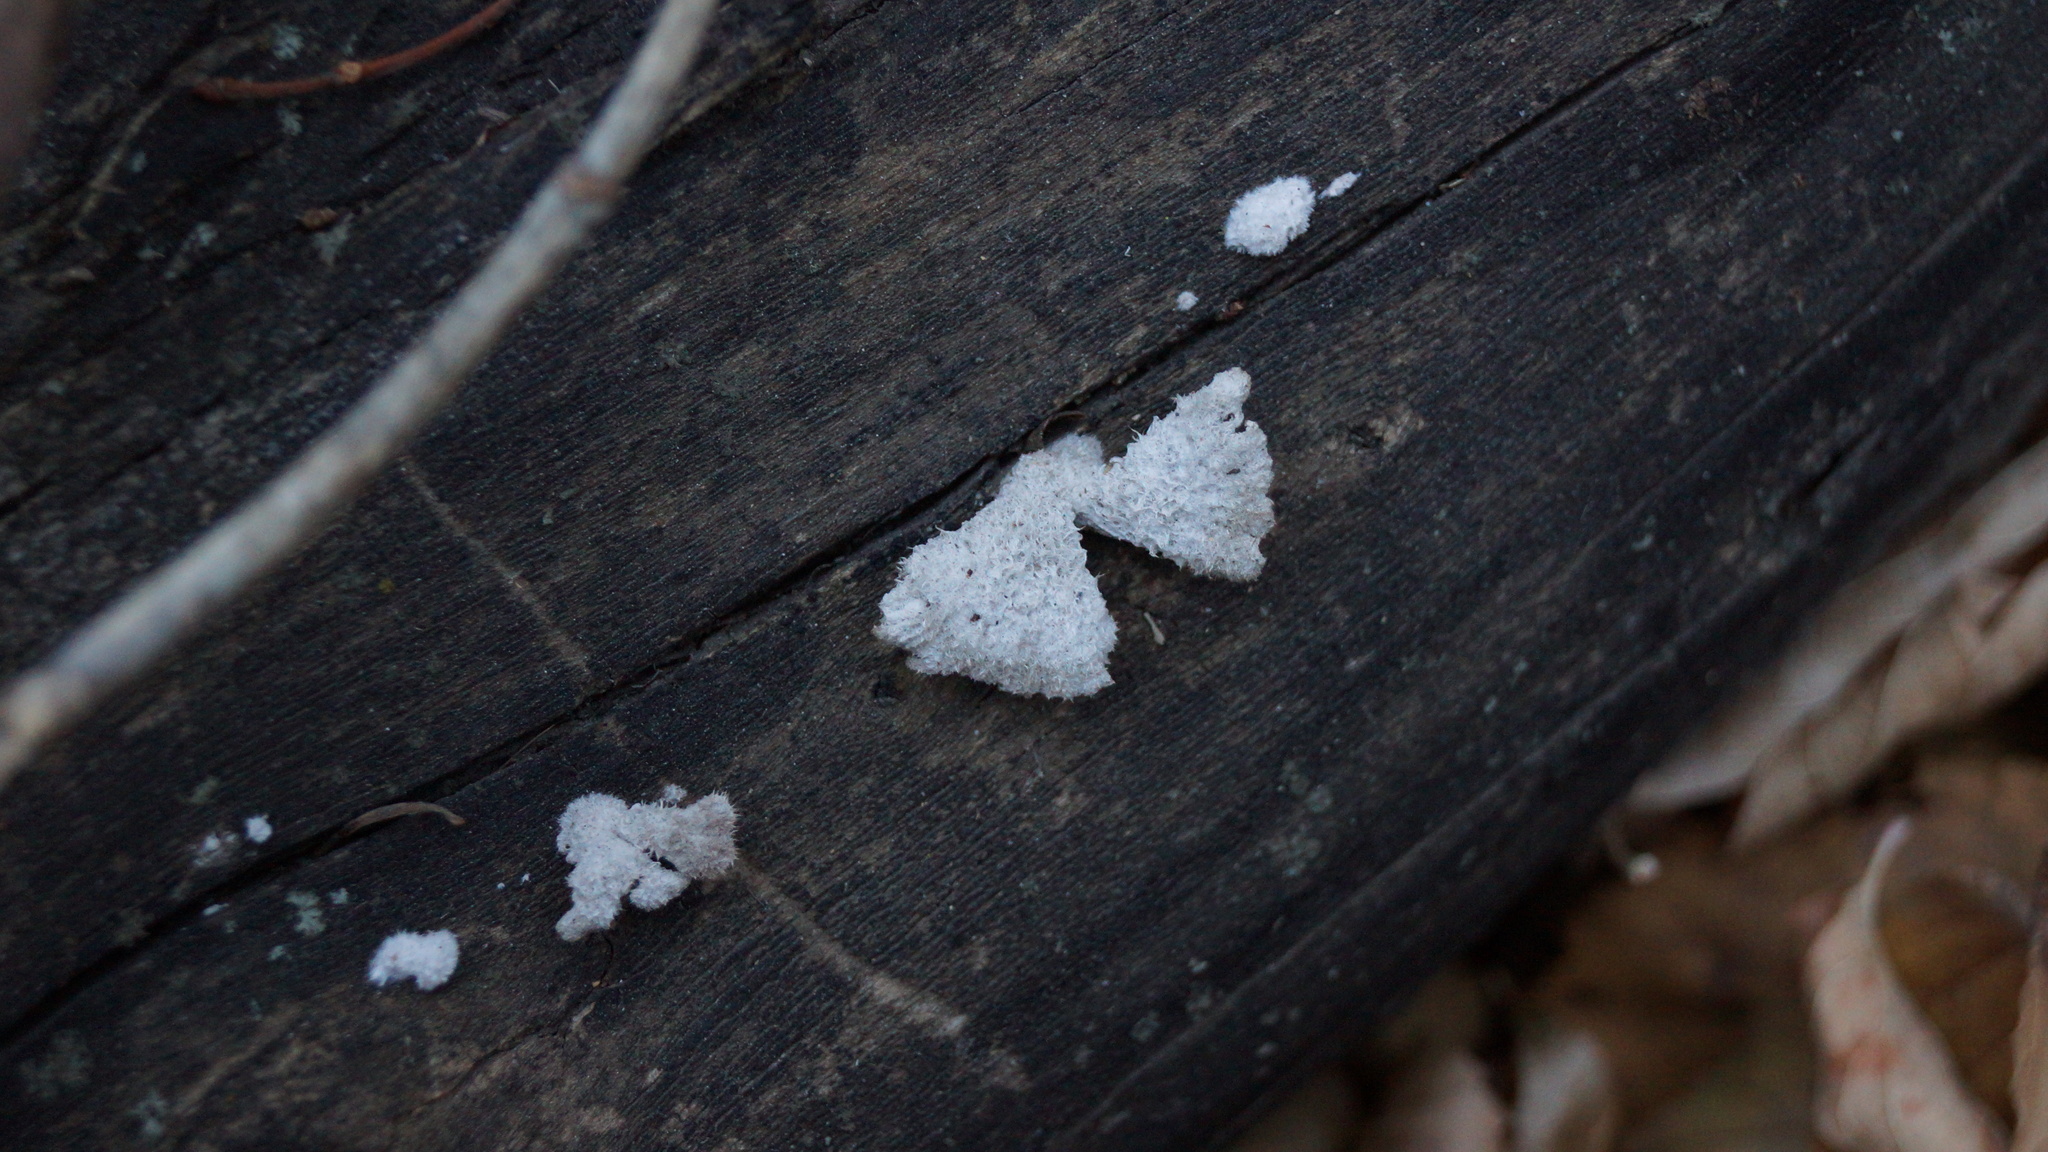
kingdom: Fungi
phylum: Basidiomycota
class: Agaricomycetes
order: Agaricales
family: Schizophyllaceae
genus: Schizophyllum
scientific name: Schizophyllum commune
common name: Common porecrust
